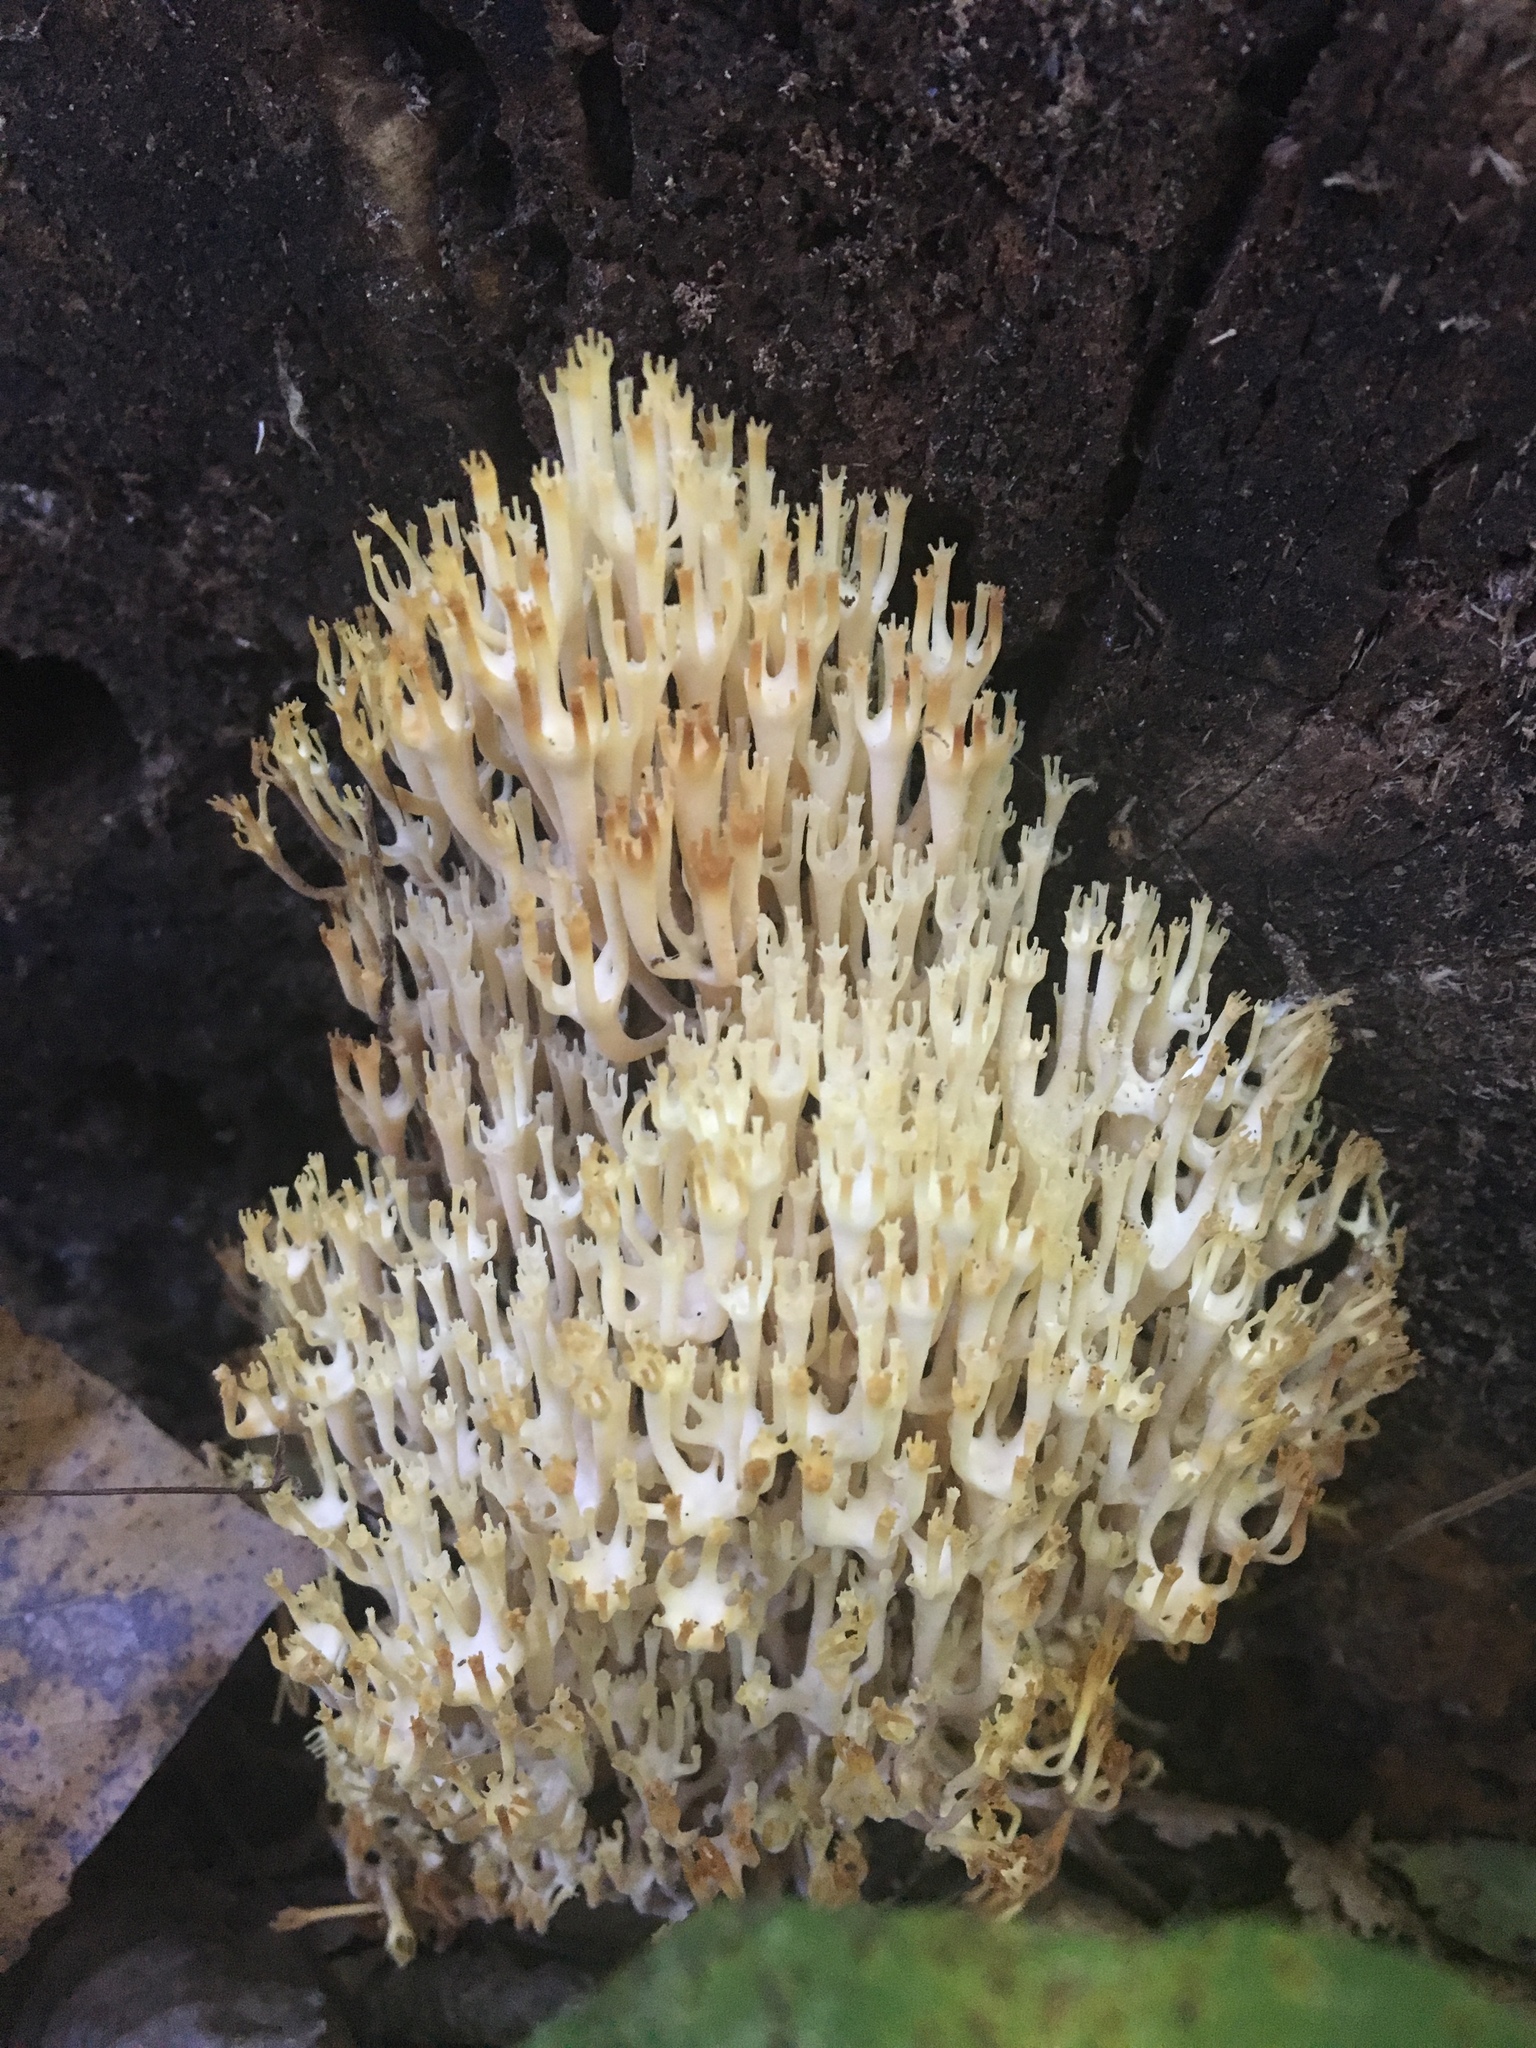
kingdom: Fungi
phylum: Basidiomycota
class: Agaricomycetes
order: Russulales
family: Auriscalpiaceae
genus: Artomyces
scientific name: Artomyces pyxidatus
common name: Crown-tipped coral fungus
